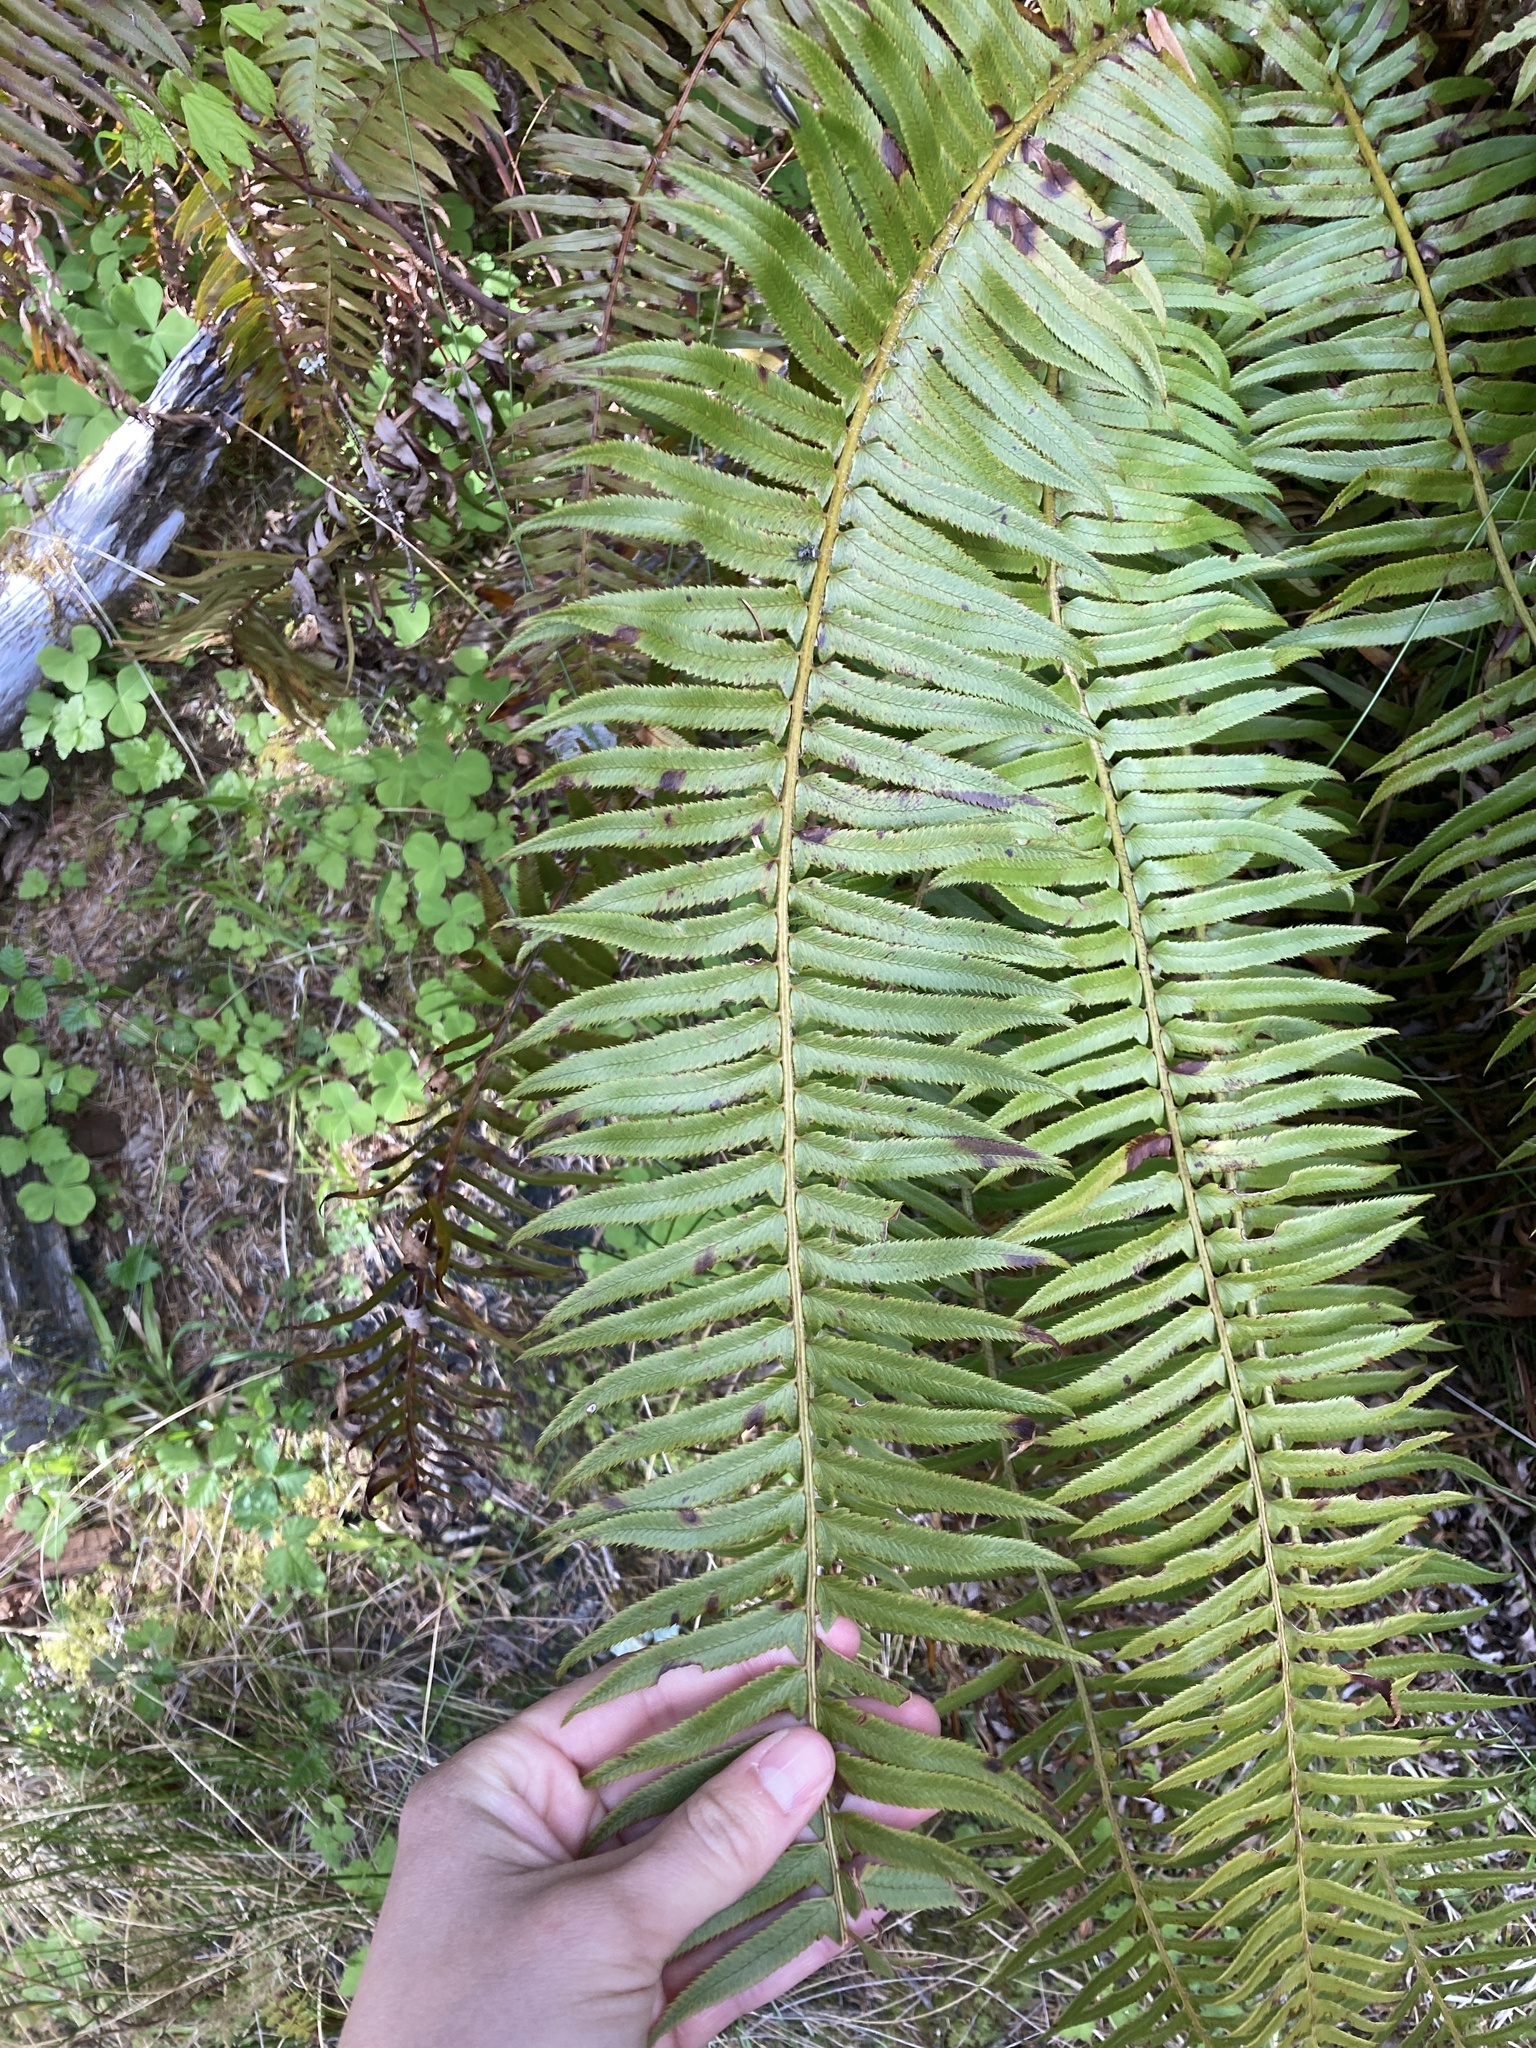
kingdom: Plantae
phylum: Tracheophyta
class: Polypodiopsida
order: Polypodiales
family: Dryopteridaceae
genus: Polystichum
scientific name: Polystichum munitum
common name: Western sword-fern
